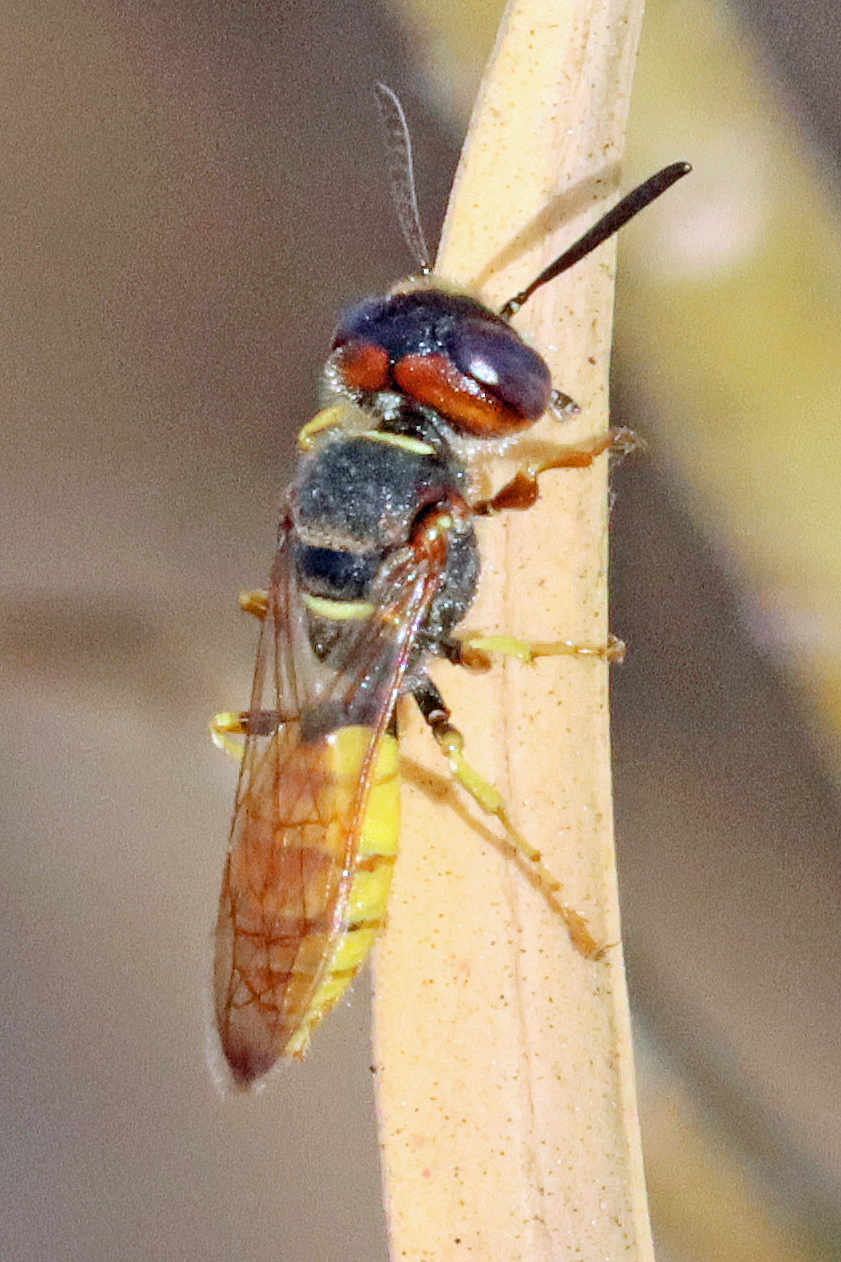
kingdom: Animalia
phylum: Arthropoda
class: Insecta
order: Hymenoptera
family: Crabronidae
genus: Philanthus
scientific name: Philanthus triangulum
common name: Bee wolf
